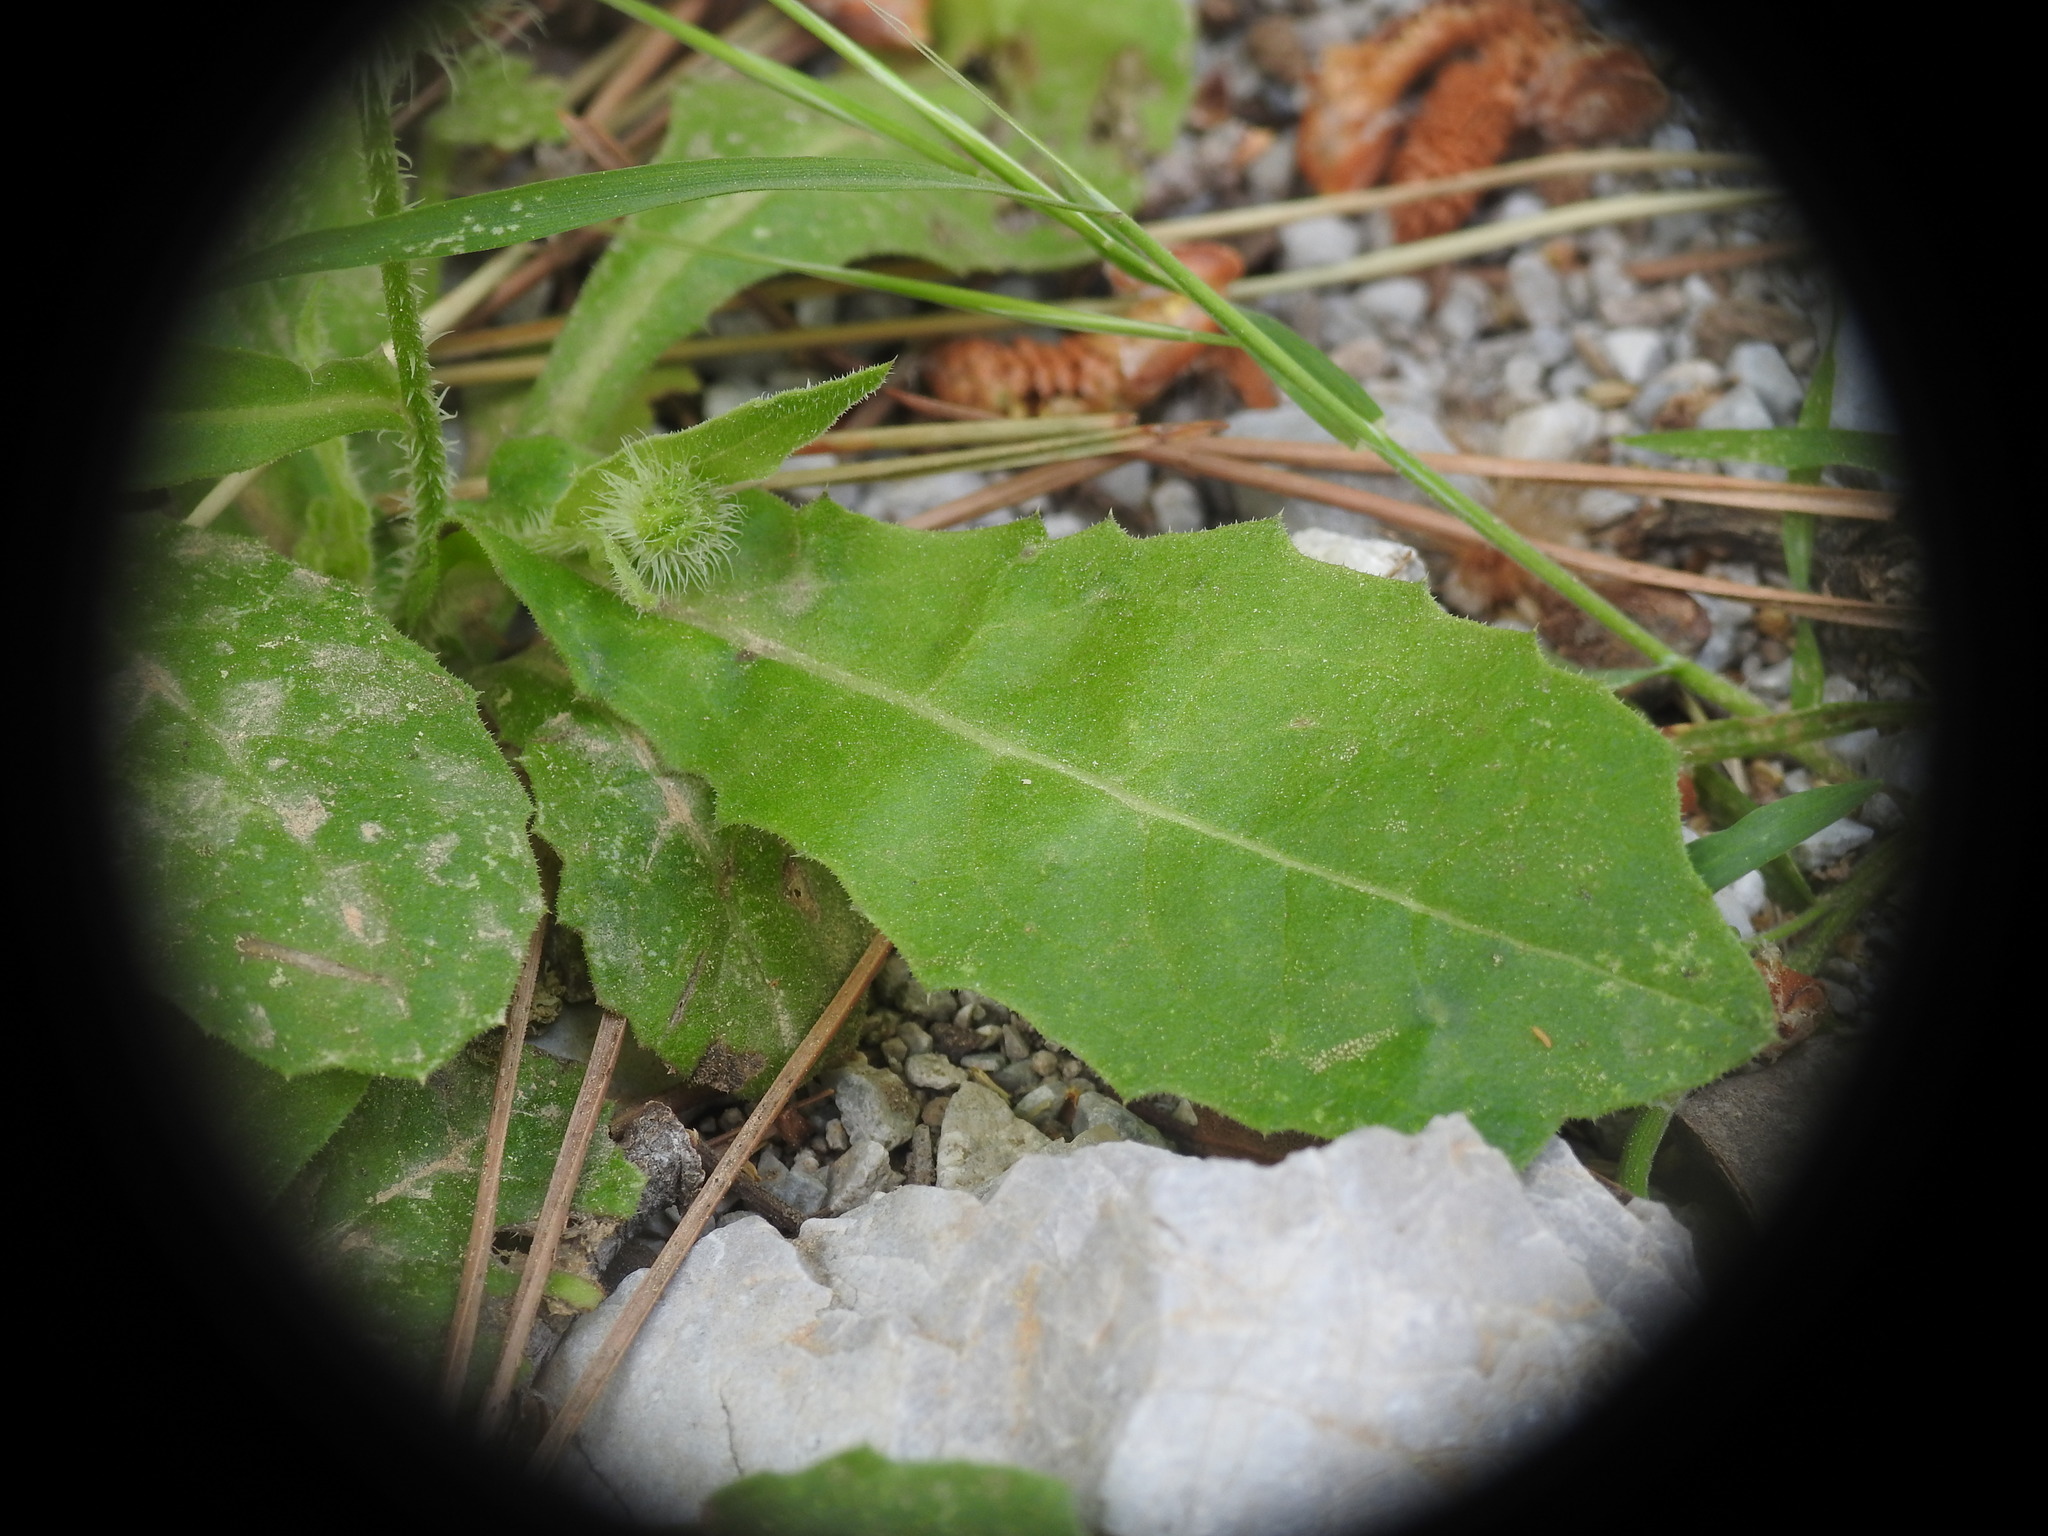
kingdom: Plantae
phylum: Tracheophyta
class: Magnoliopsida
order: Asterales
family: Asteraceae
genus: Urospermum
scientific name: Urospermum picroides
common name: False hawkbit
